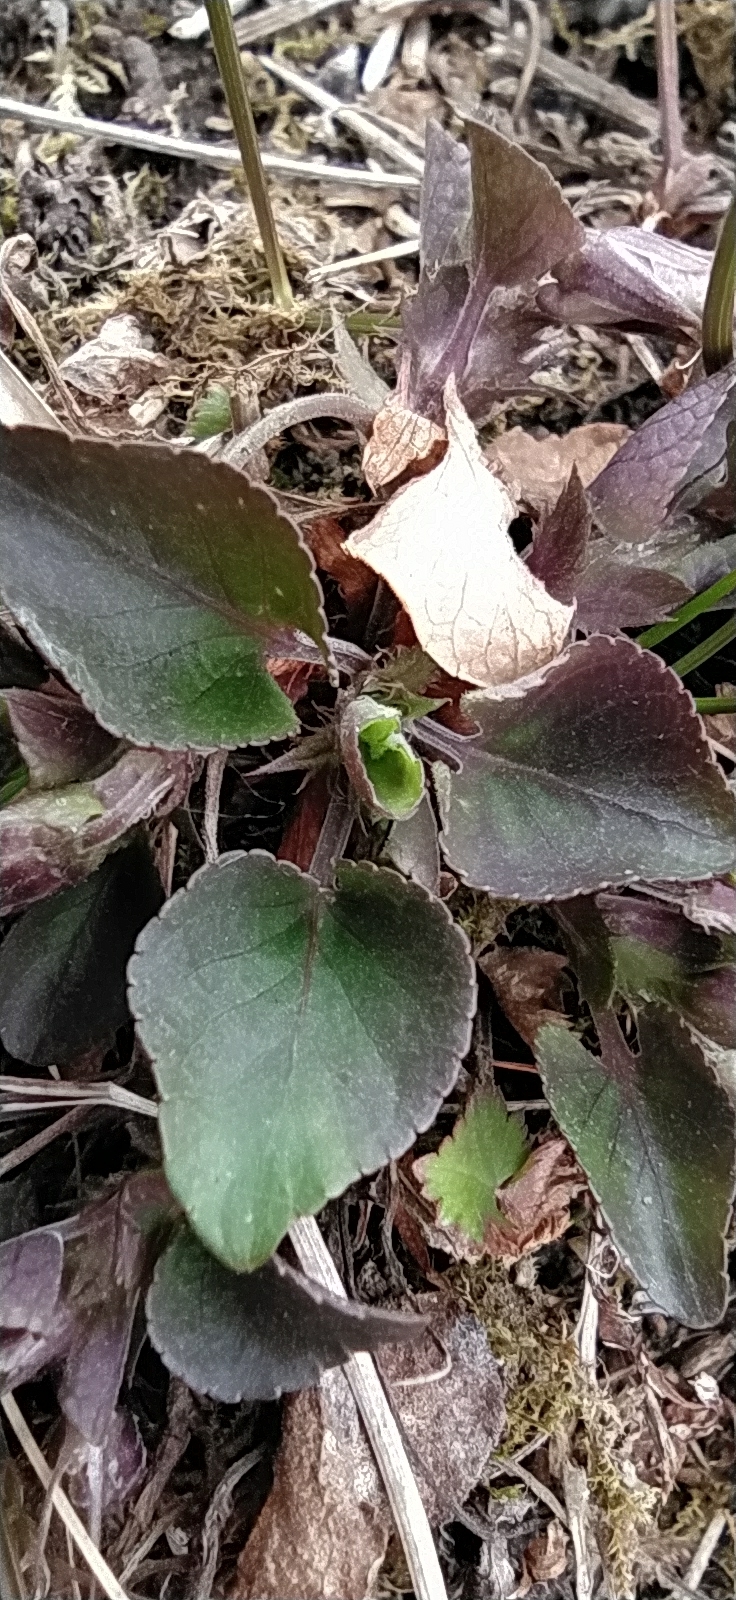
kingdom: Plantae
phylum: Tracheophyta
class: Magnoliopsida
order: Malpighiales
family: Violaceae
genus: Viola
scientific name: Viola rupestris
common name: Teesdale violet
